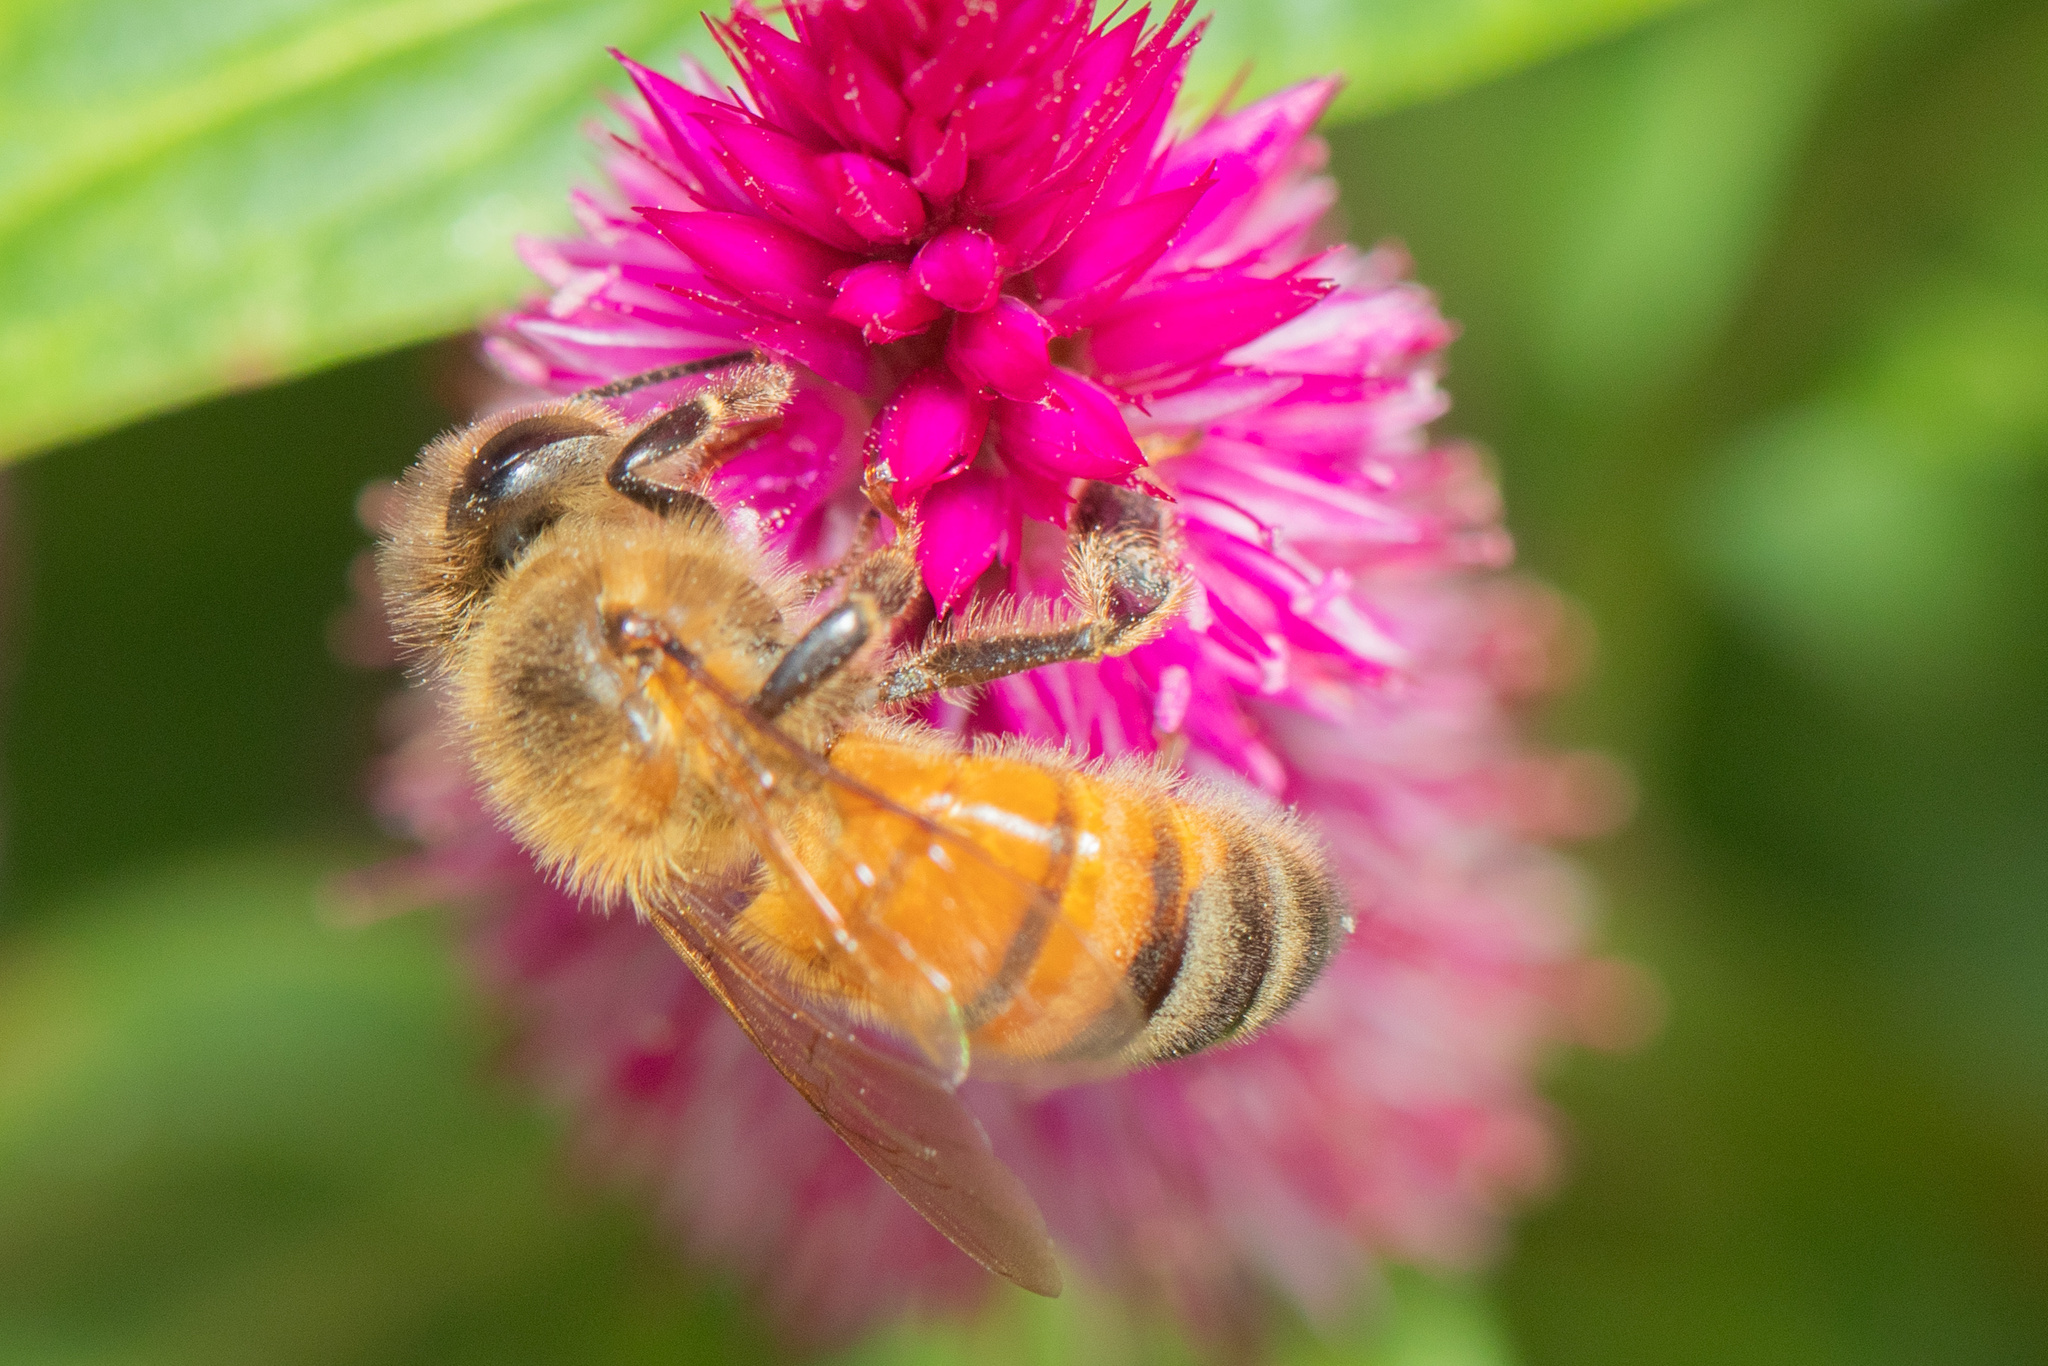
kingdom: Animalia
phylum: Arthropoda
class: Insecta
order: Hymenoptera
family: Apidae
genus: Apis
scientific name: Apis mellifera
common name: Honey bee
